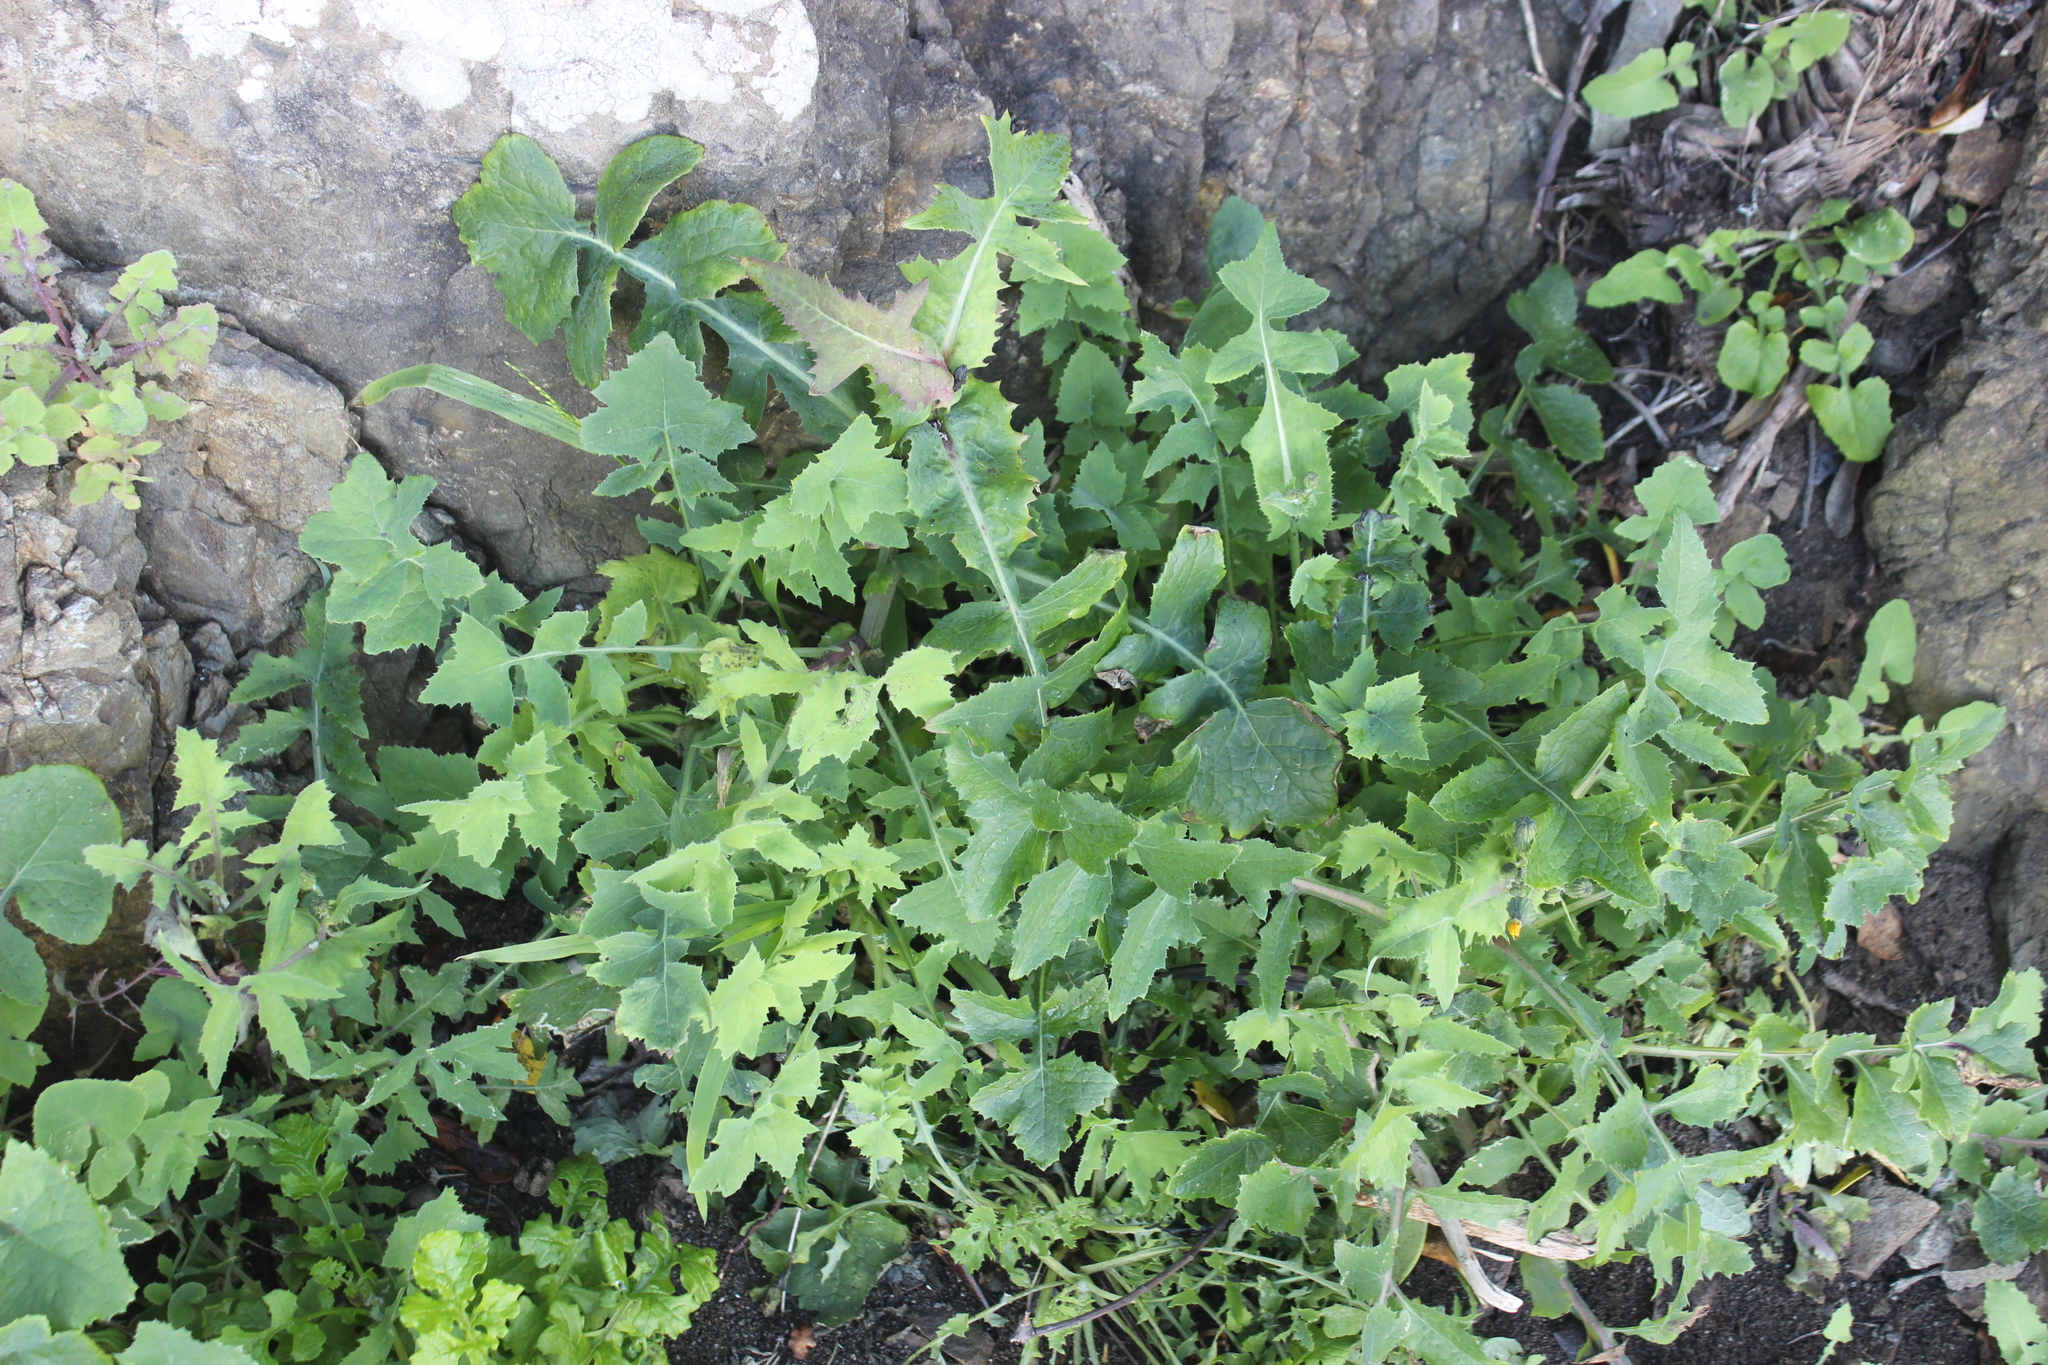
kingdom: Plantae
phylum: Tracheophyta
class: Magnoliopsida
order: Asterales
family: Asteraceae
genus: Sonchus
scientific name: Sonchus oleraceus
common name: Common sowthistle
